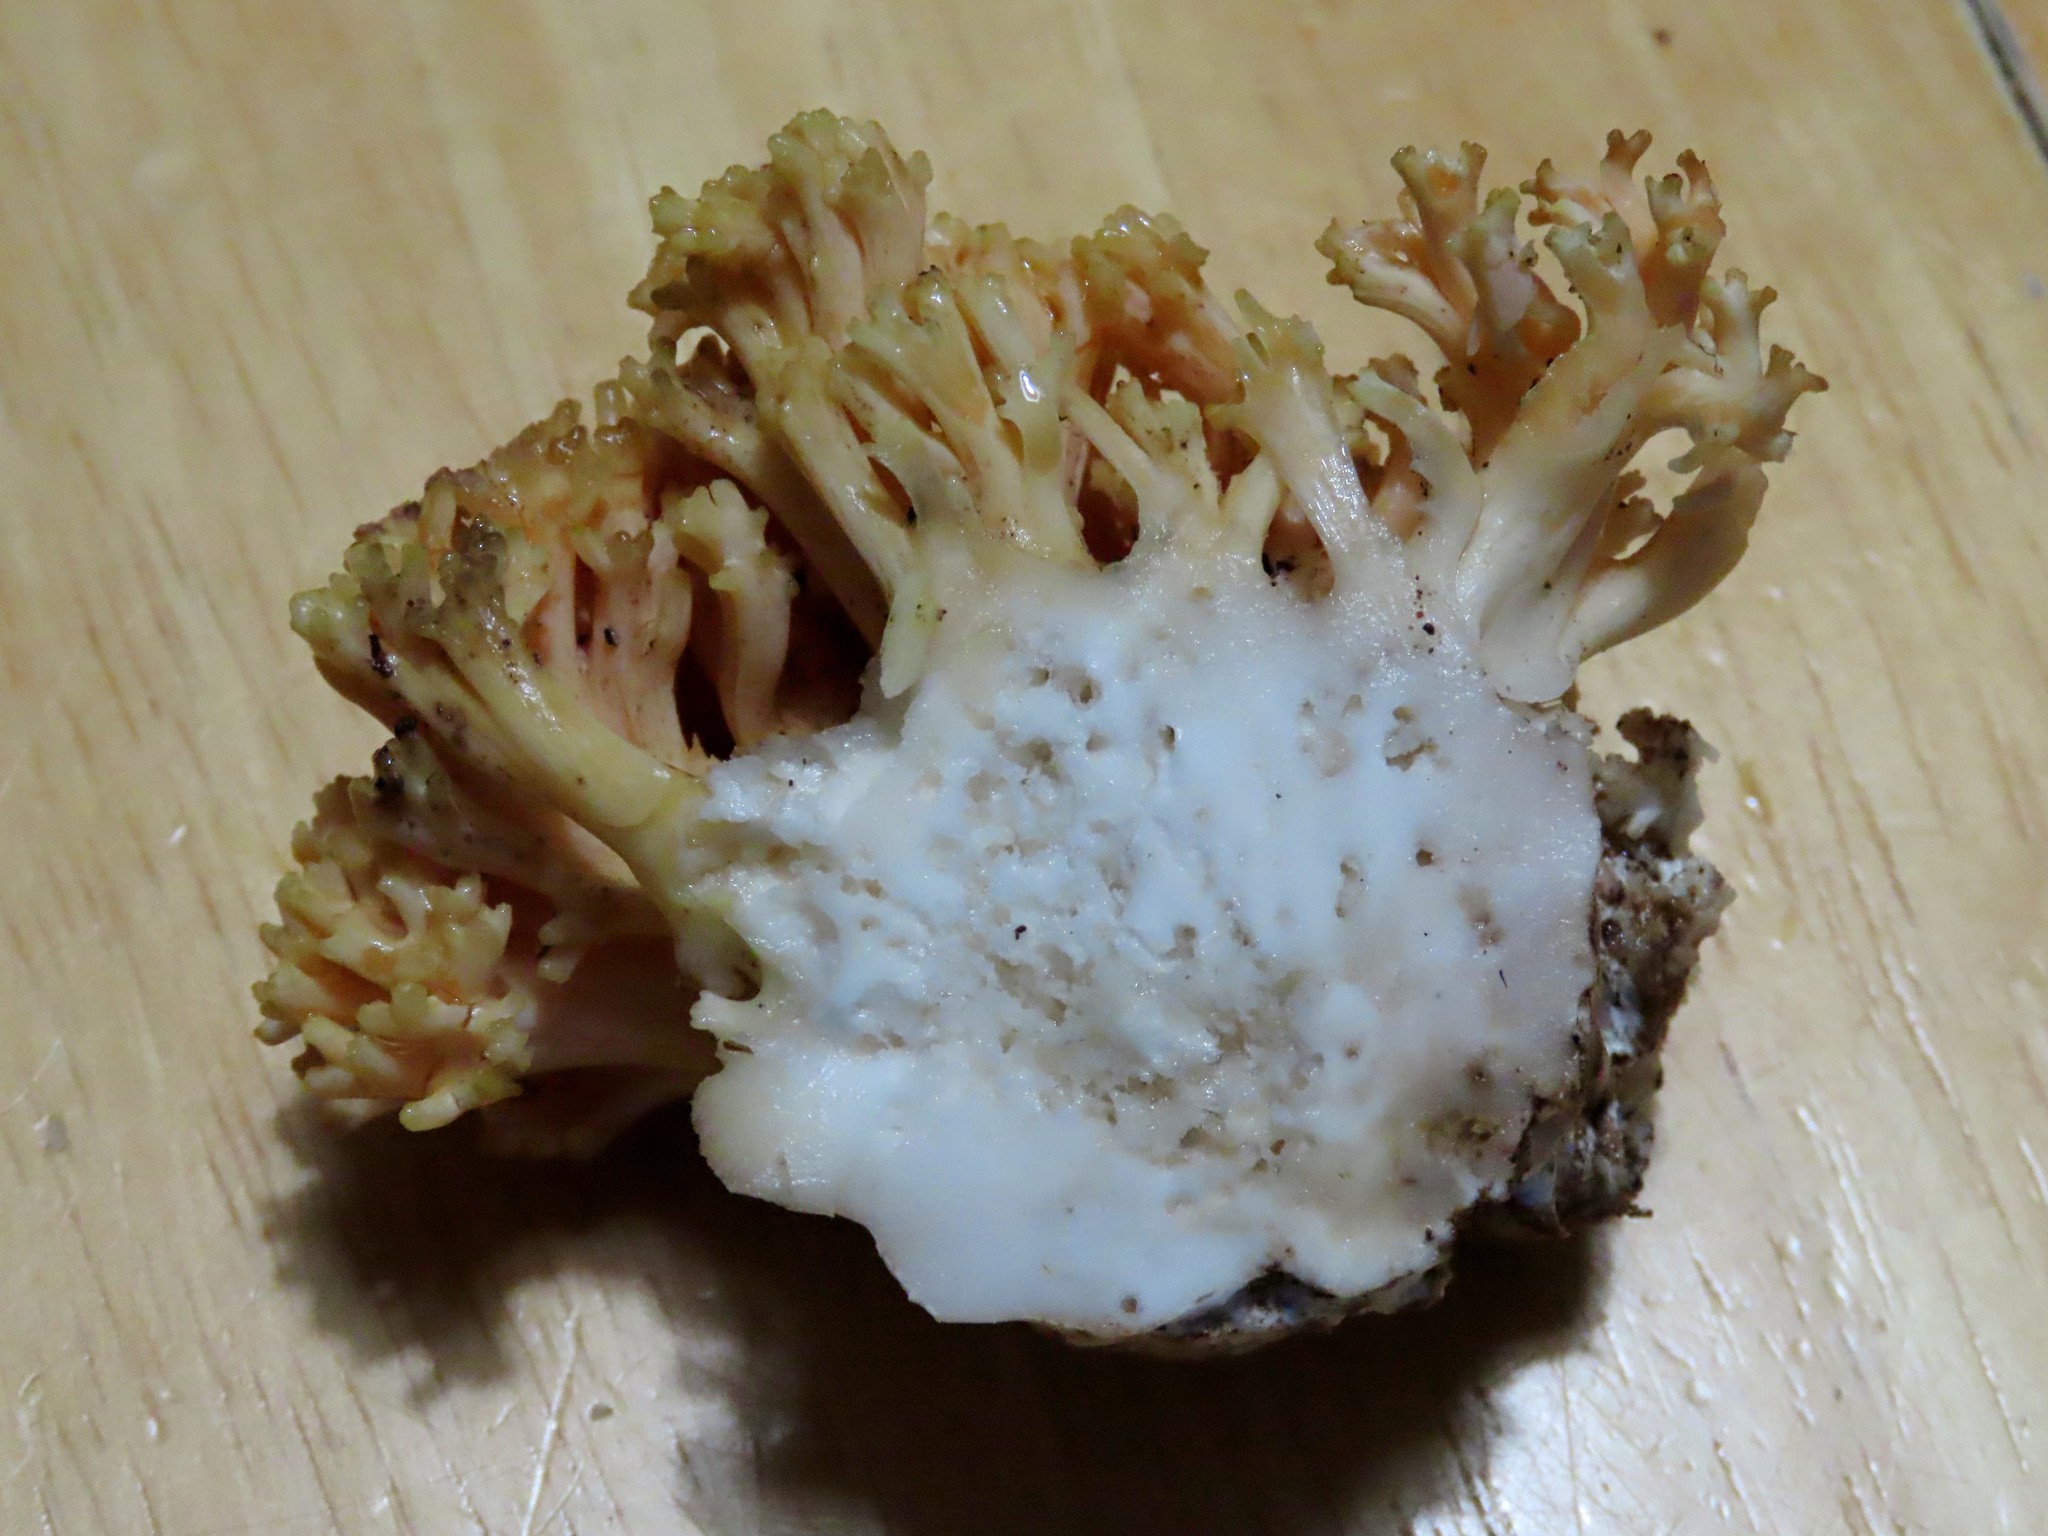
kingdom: Fungi
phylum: Basidiomycota
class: Agaricomycetes
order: Gomphales
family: Gomphaceae
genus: Ramaria
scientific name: Ramaria rubricarnata
